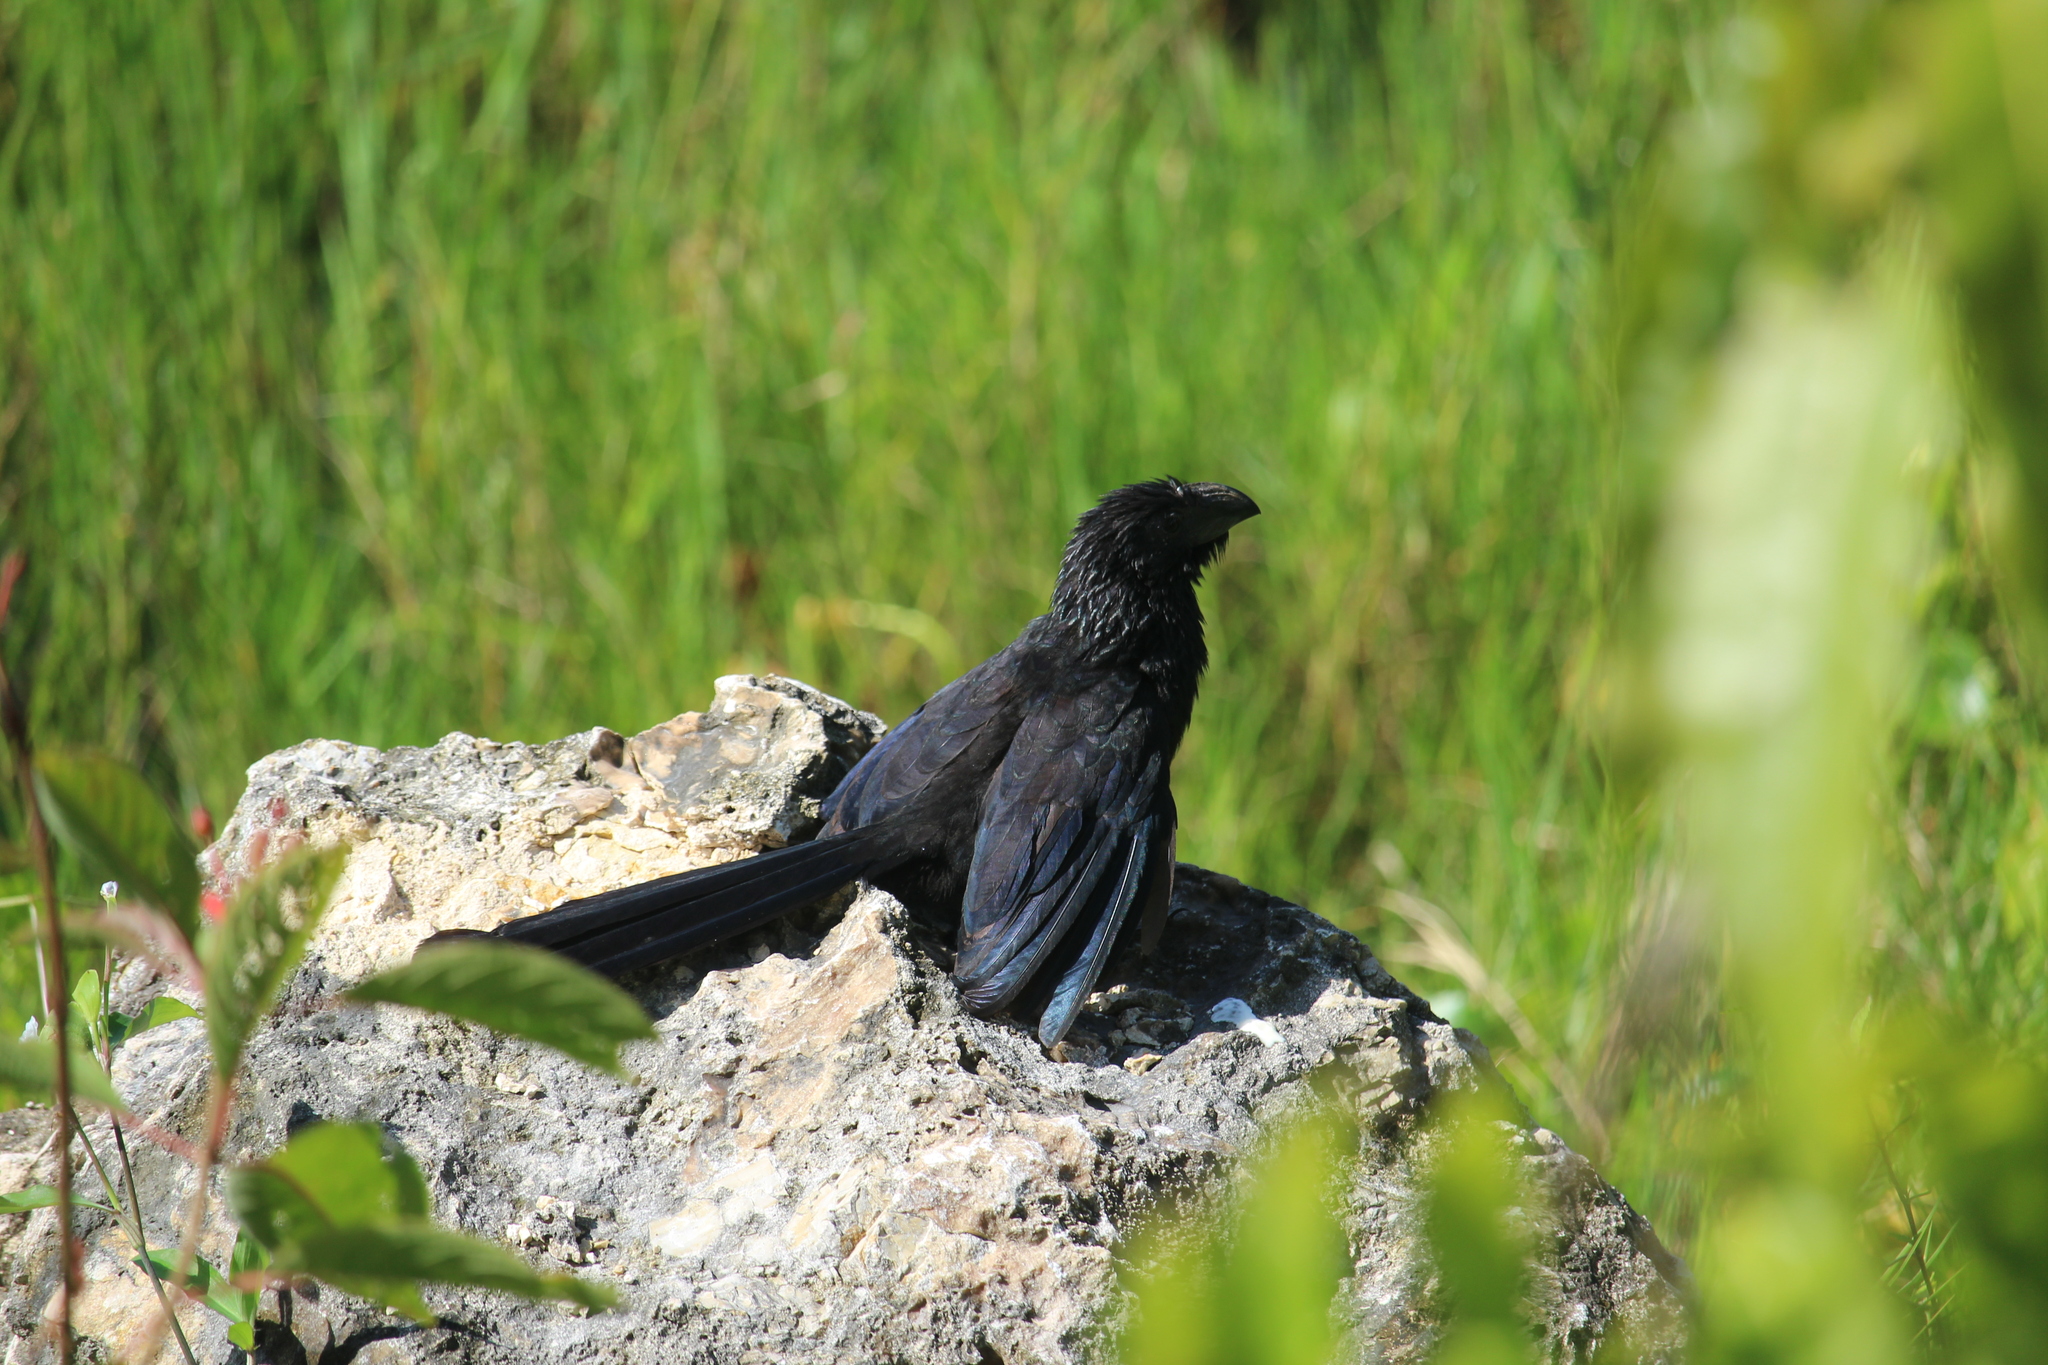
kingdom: Animalia
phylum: Chordata
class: Aves
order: Cuculiformes
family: Cuculidae
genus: Crotophaga
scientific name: Crotophaga sulcirostris
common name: Groove-billed ani
